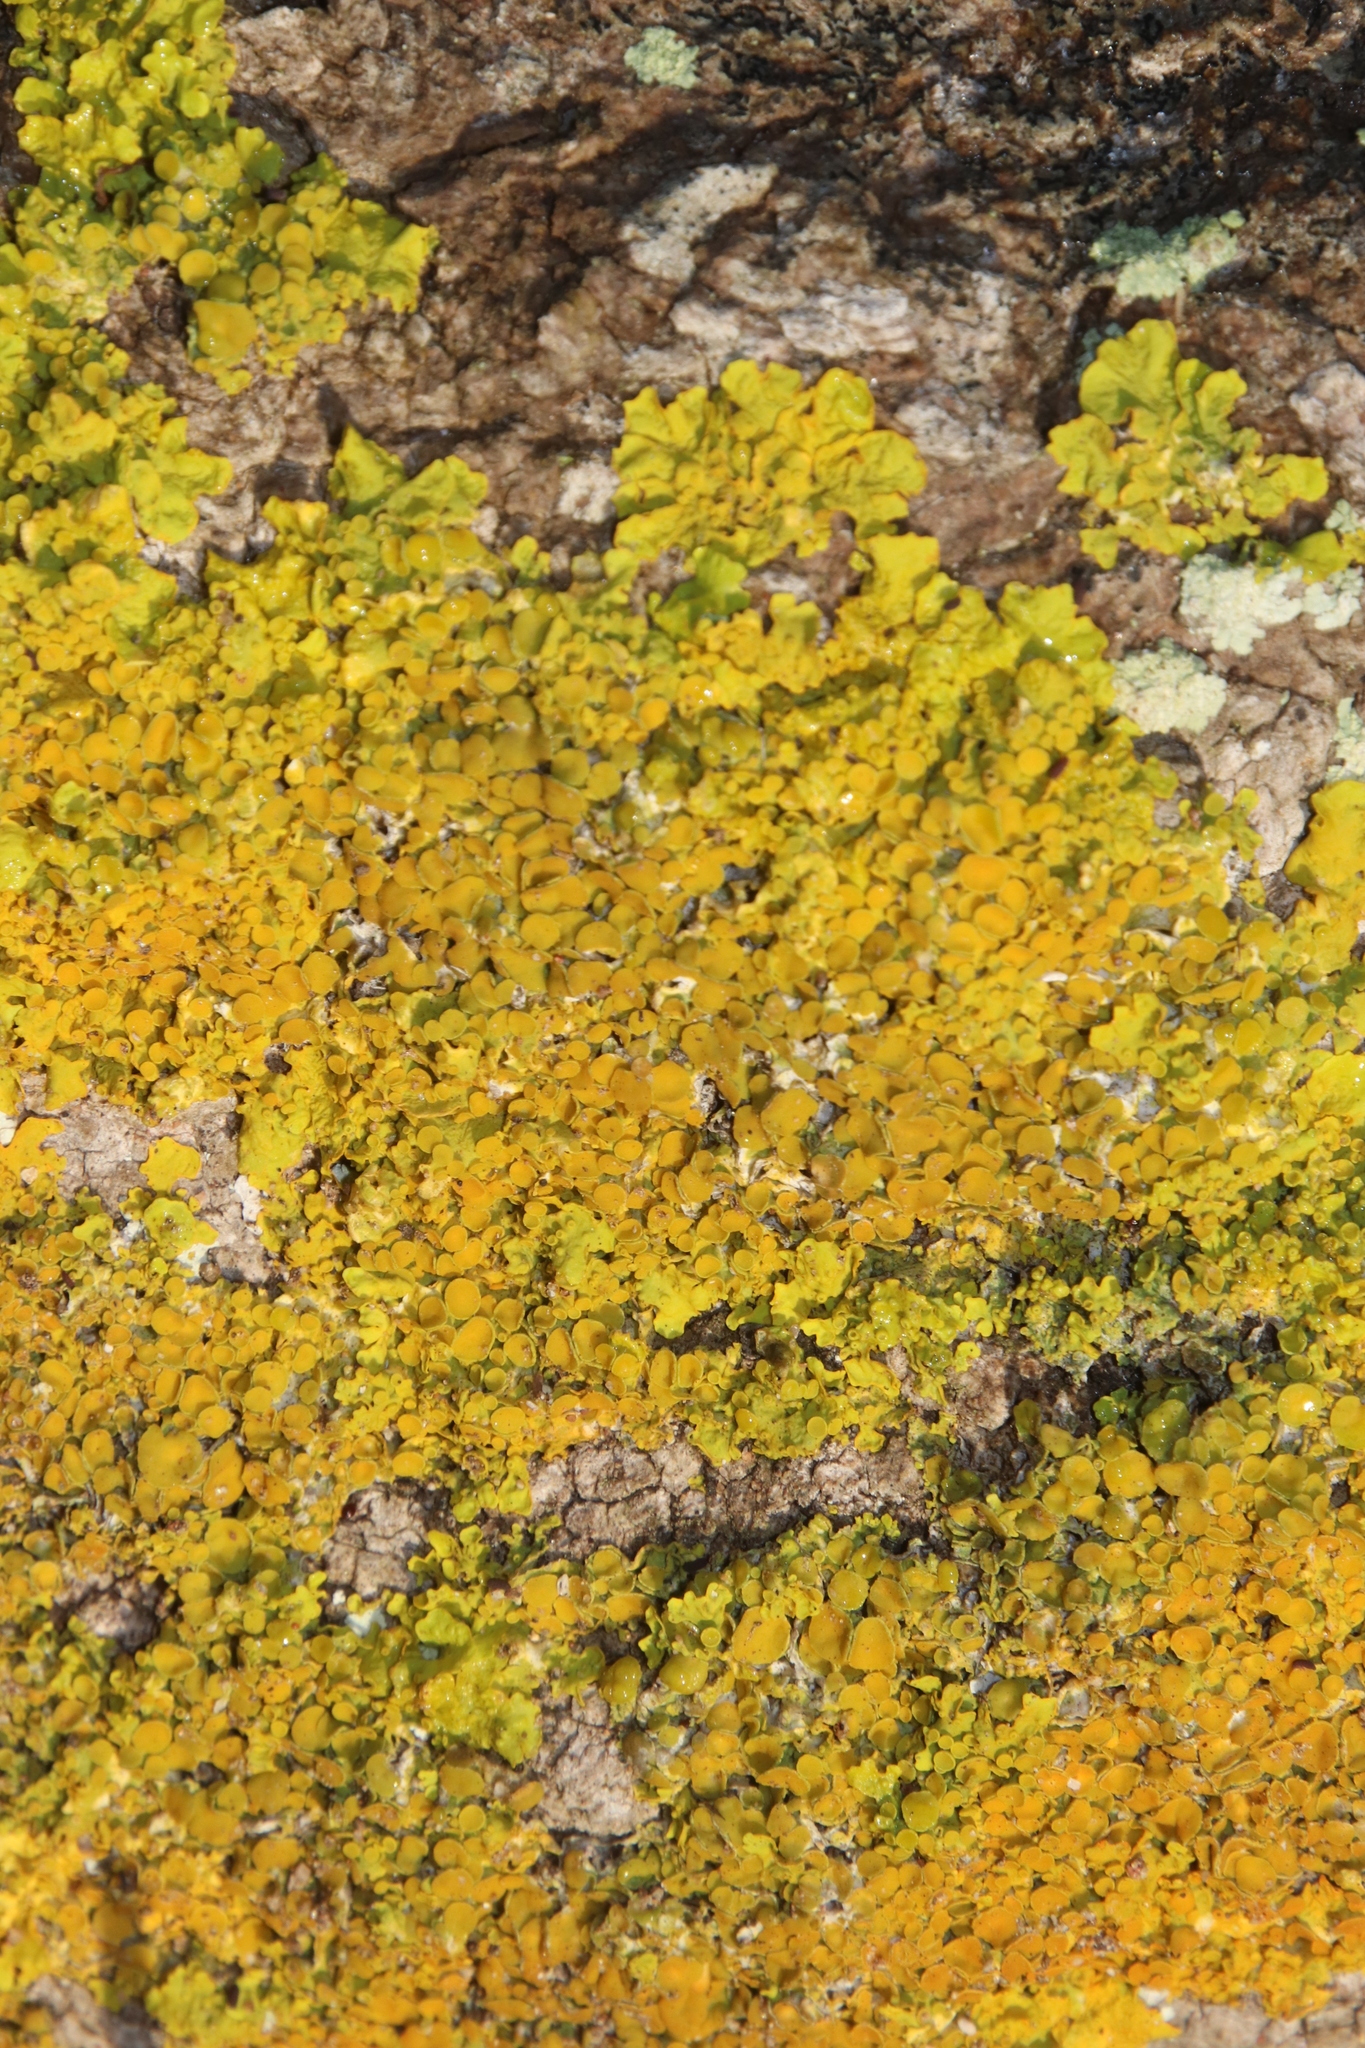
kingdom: Fungi
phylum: Ascomycota
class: Lecanoromycetes
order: Teloschistales
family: Teloschistaceae
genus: Xanthoria
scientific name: Xanthoria parietina
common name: Common orange lichen
